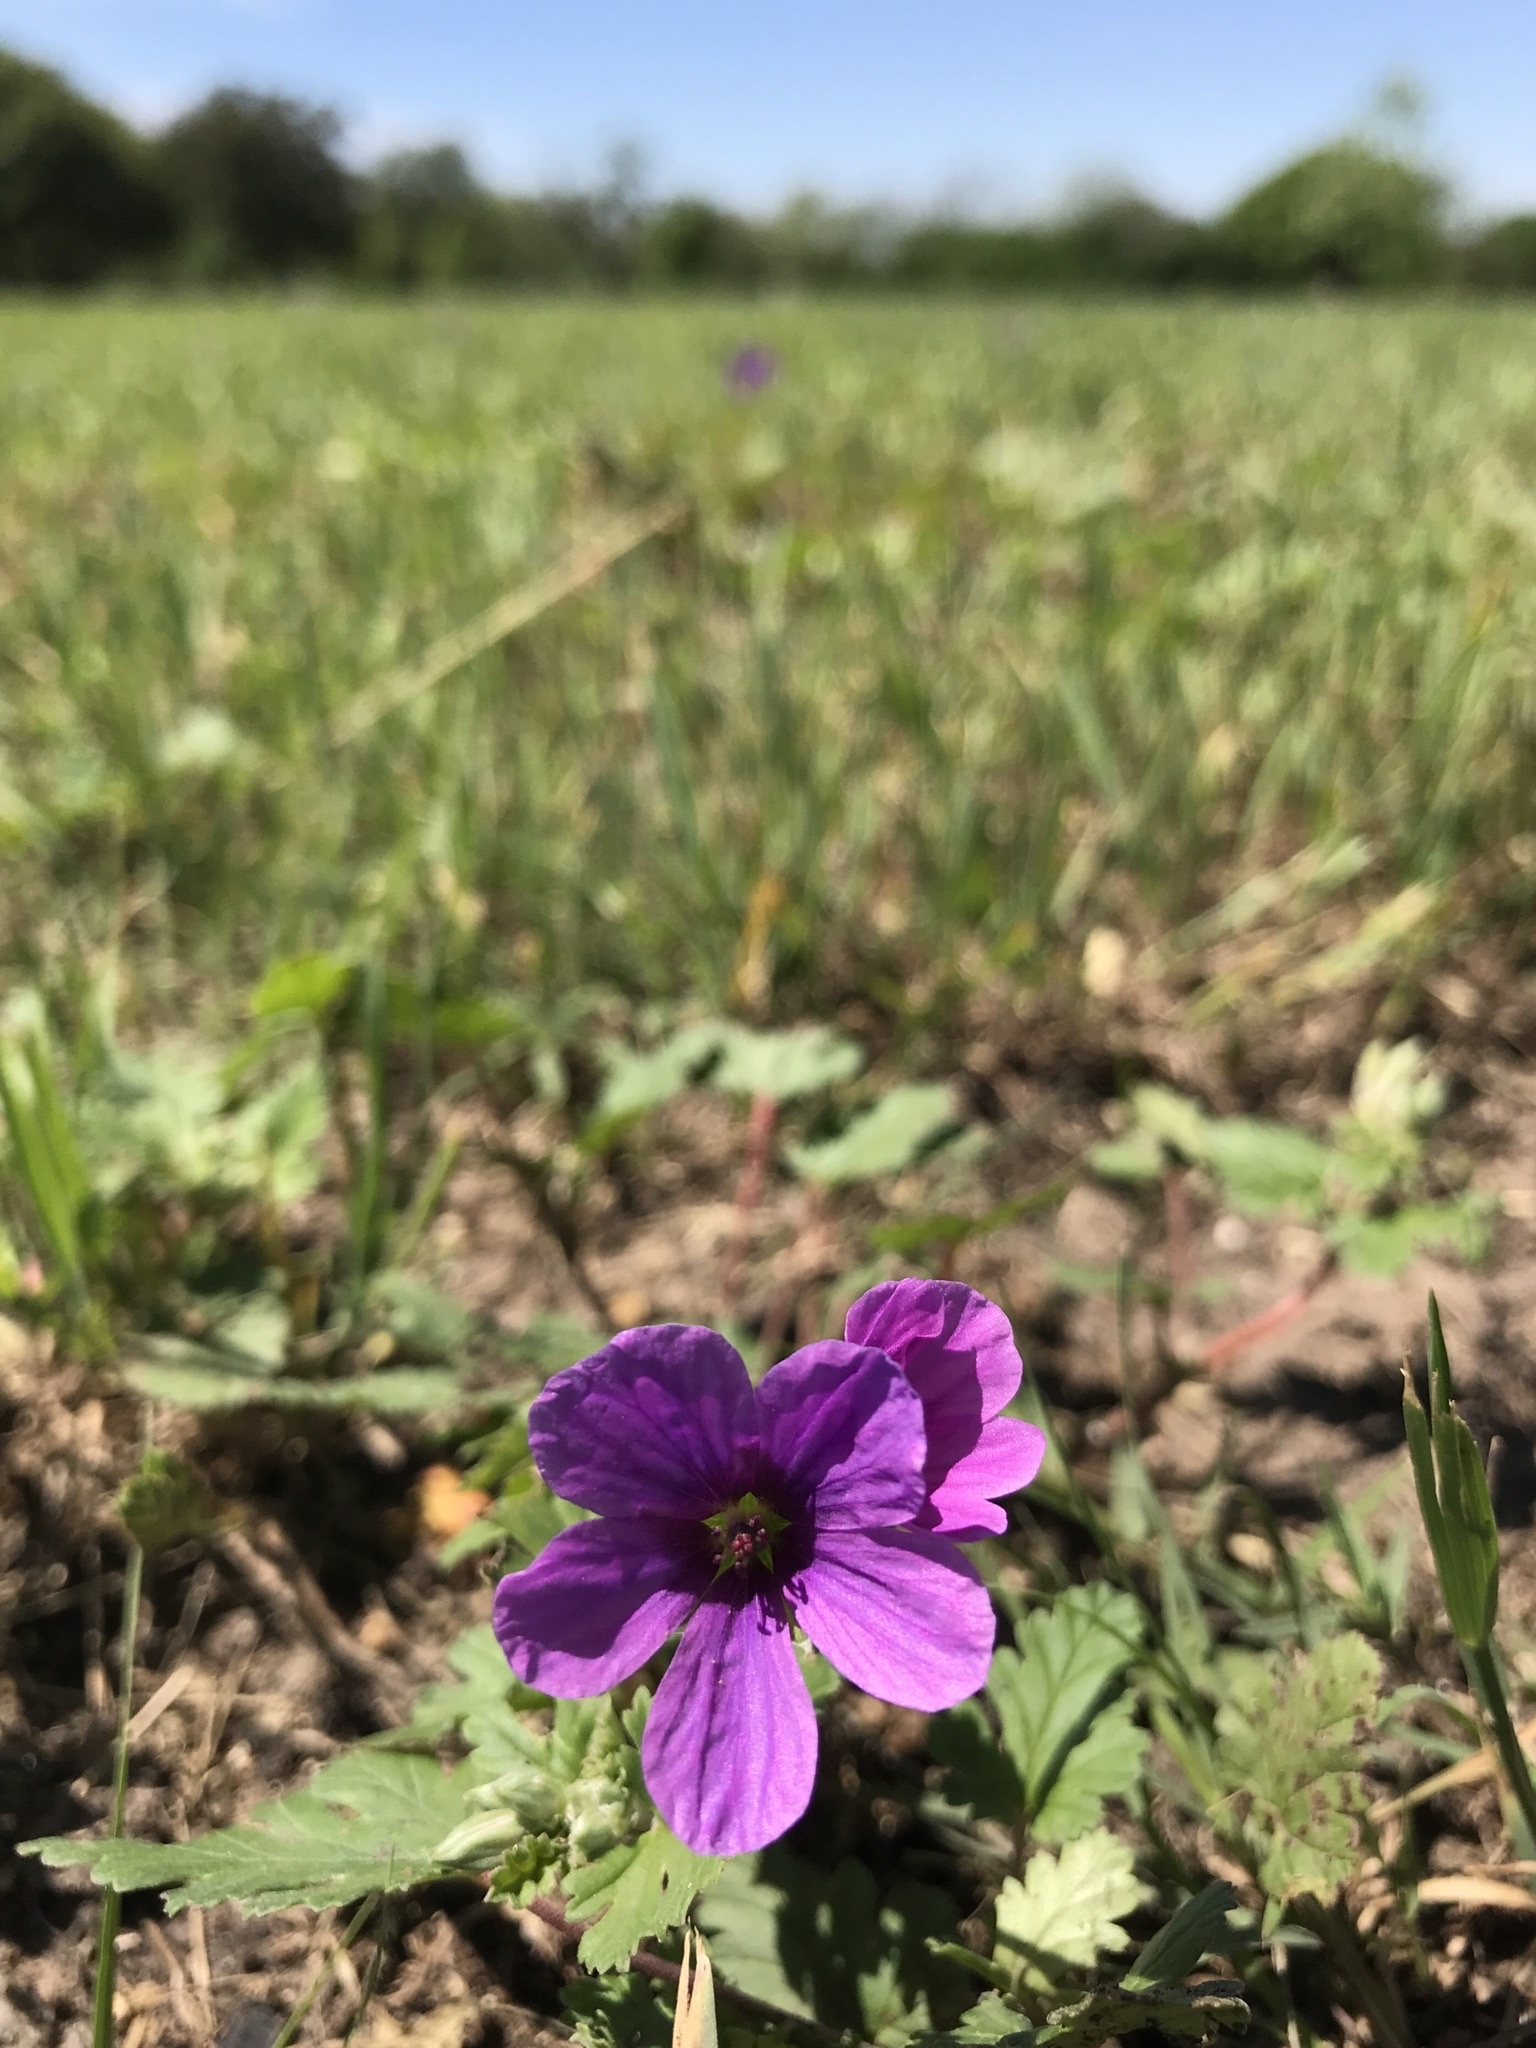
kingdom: Plantae
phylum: Tracheophyta
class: Magnoliopsida
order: Geraniales
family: Geraniaceae
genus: Erodium
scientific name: Erodium texanum
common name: Texas stork's-bill
